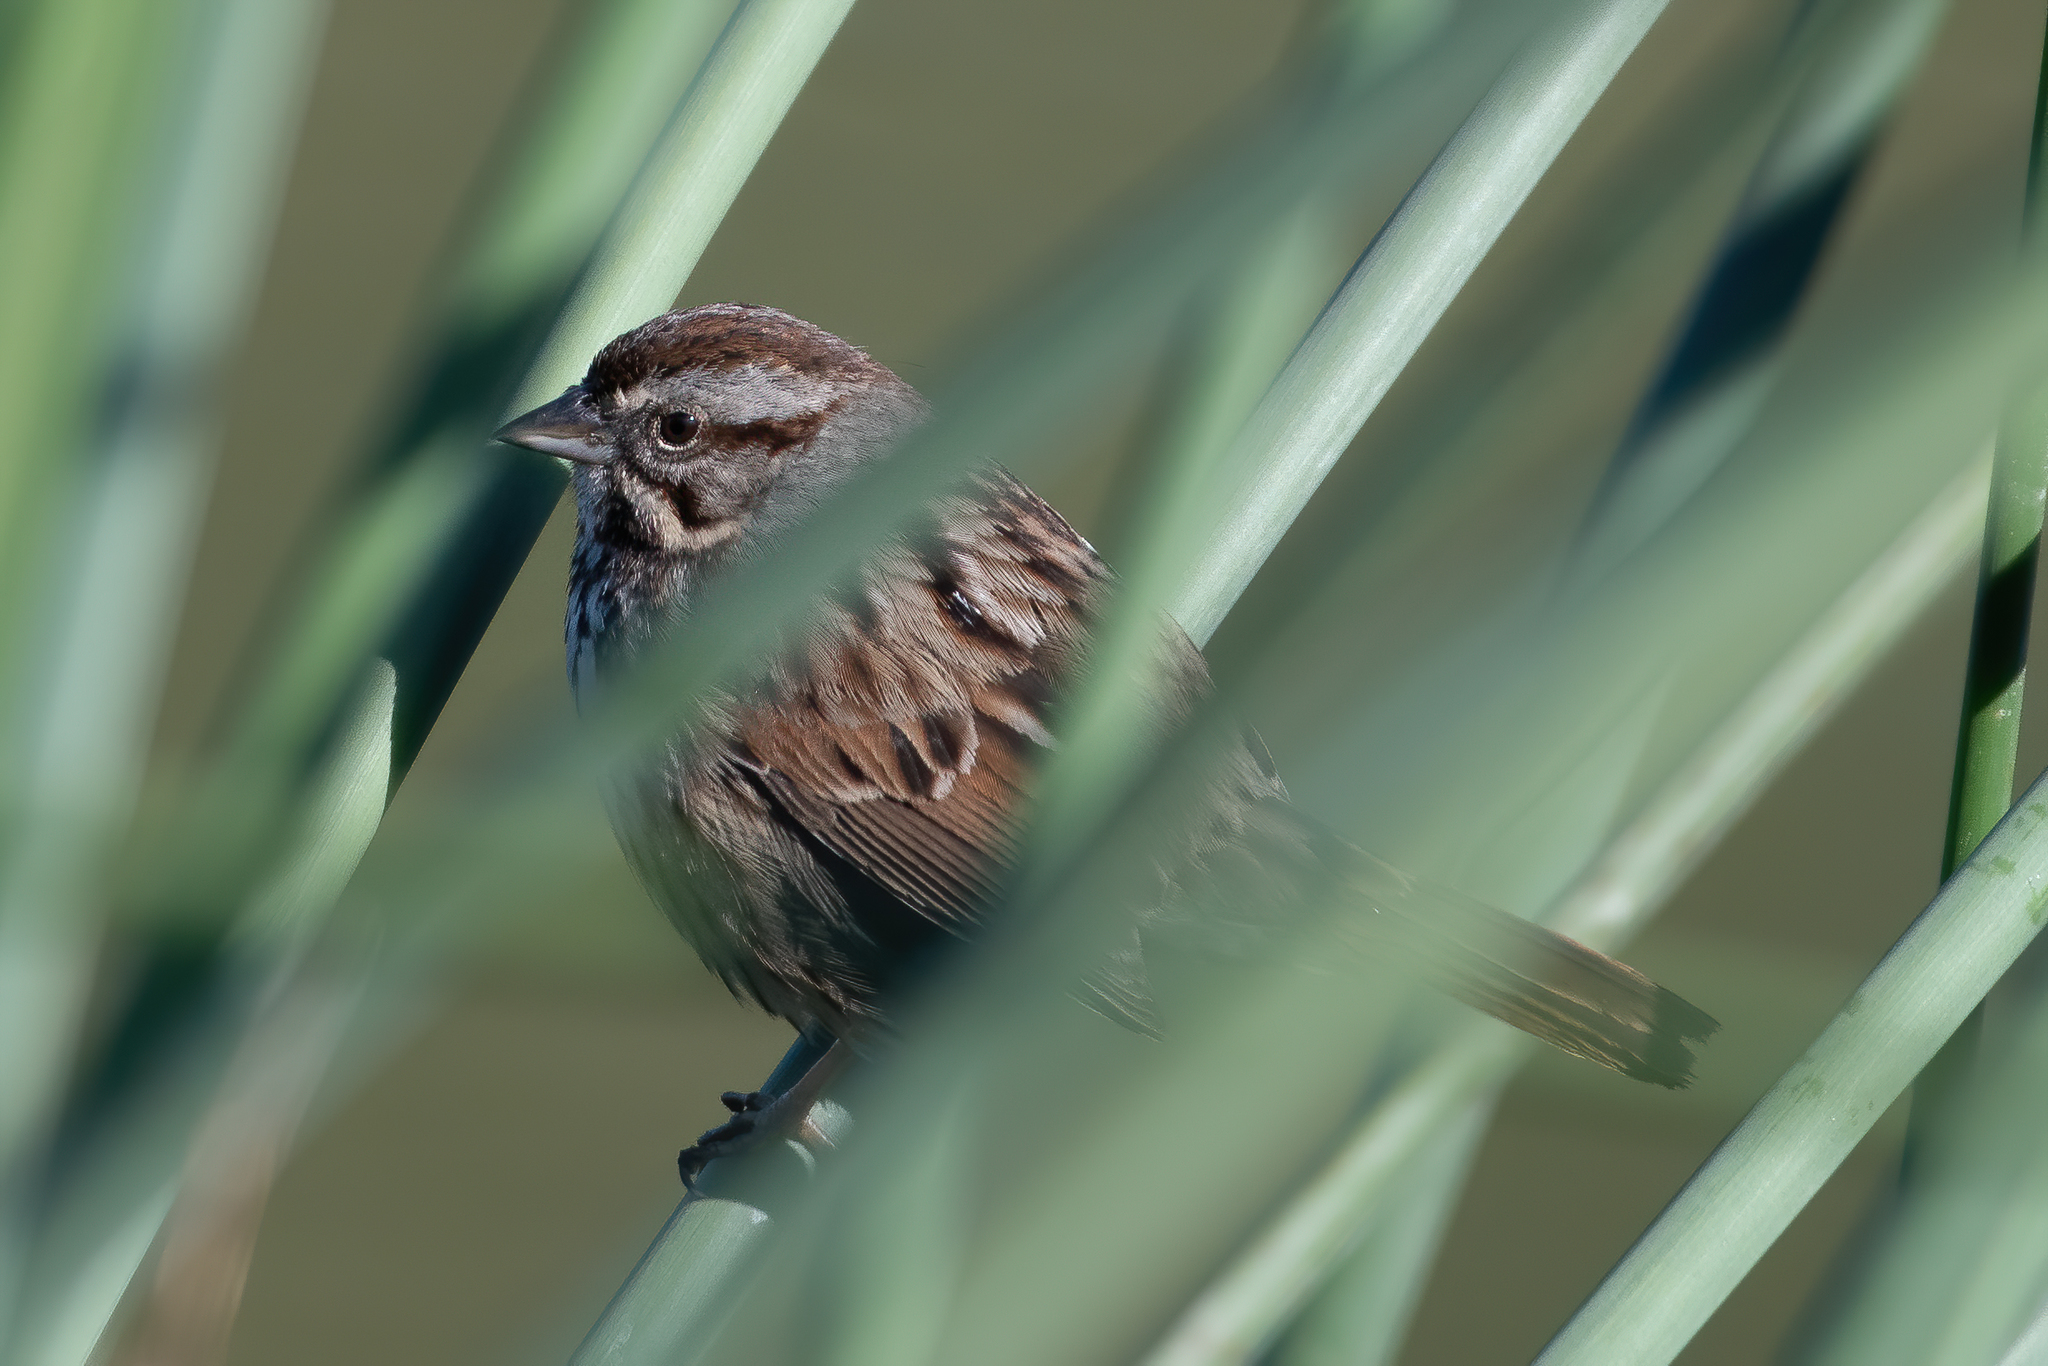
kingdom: Animalia
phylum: Chordata
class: Aves
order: Passeriformes
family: Passerellidae
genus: Melospiza
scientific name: Melospiza melodia
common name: Song sparrow
